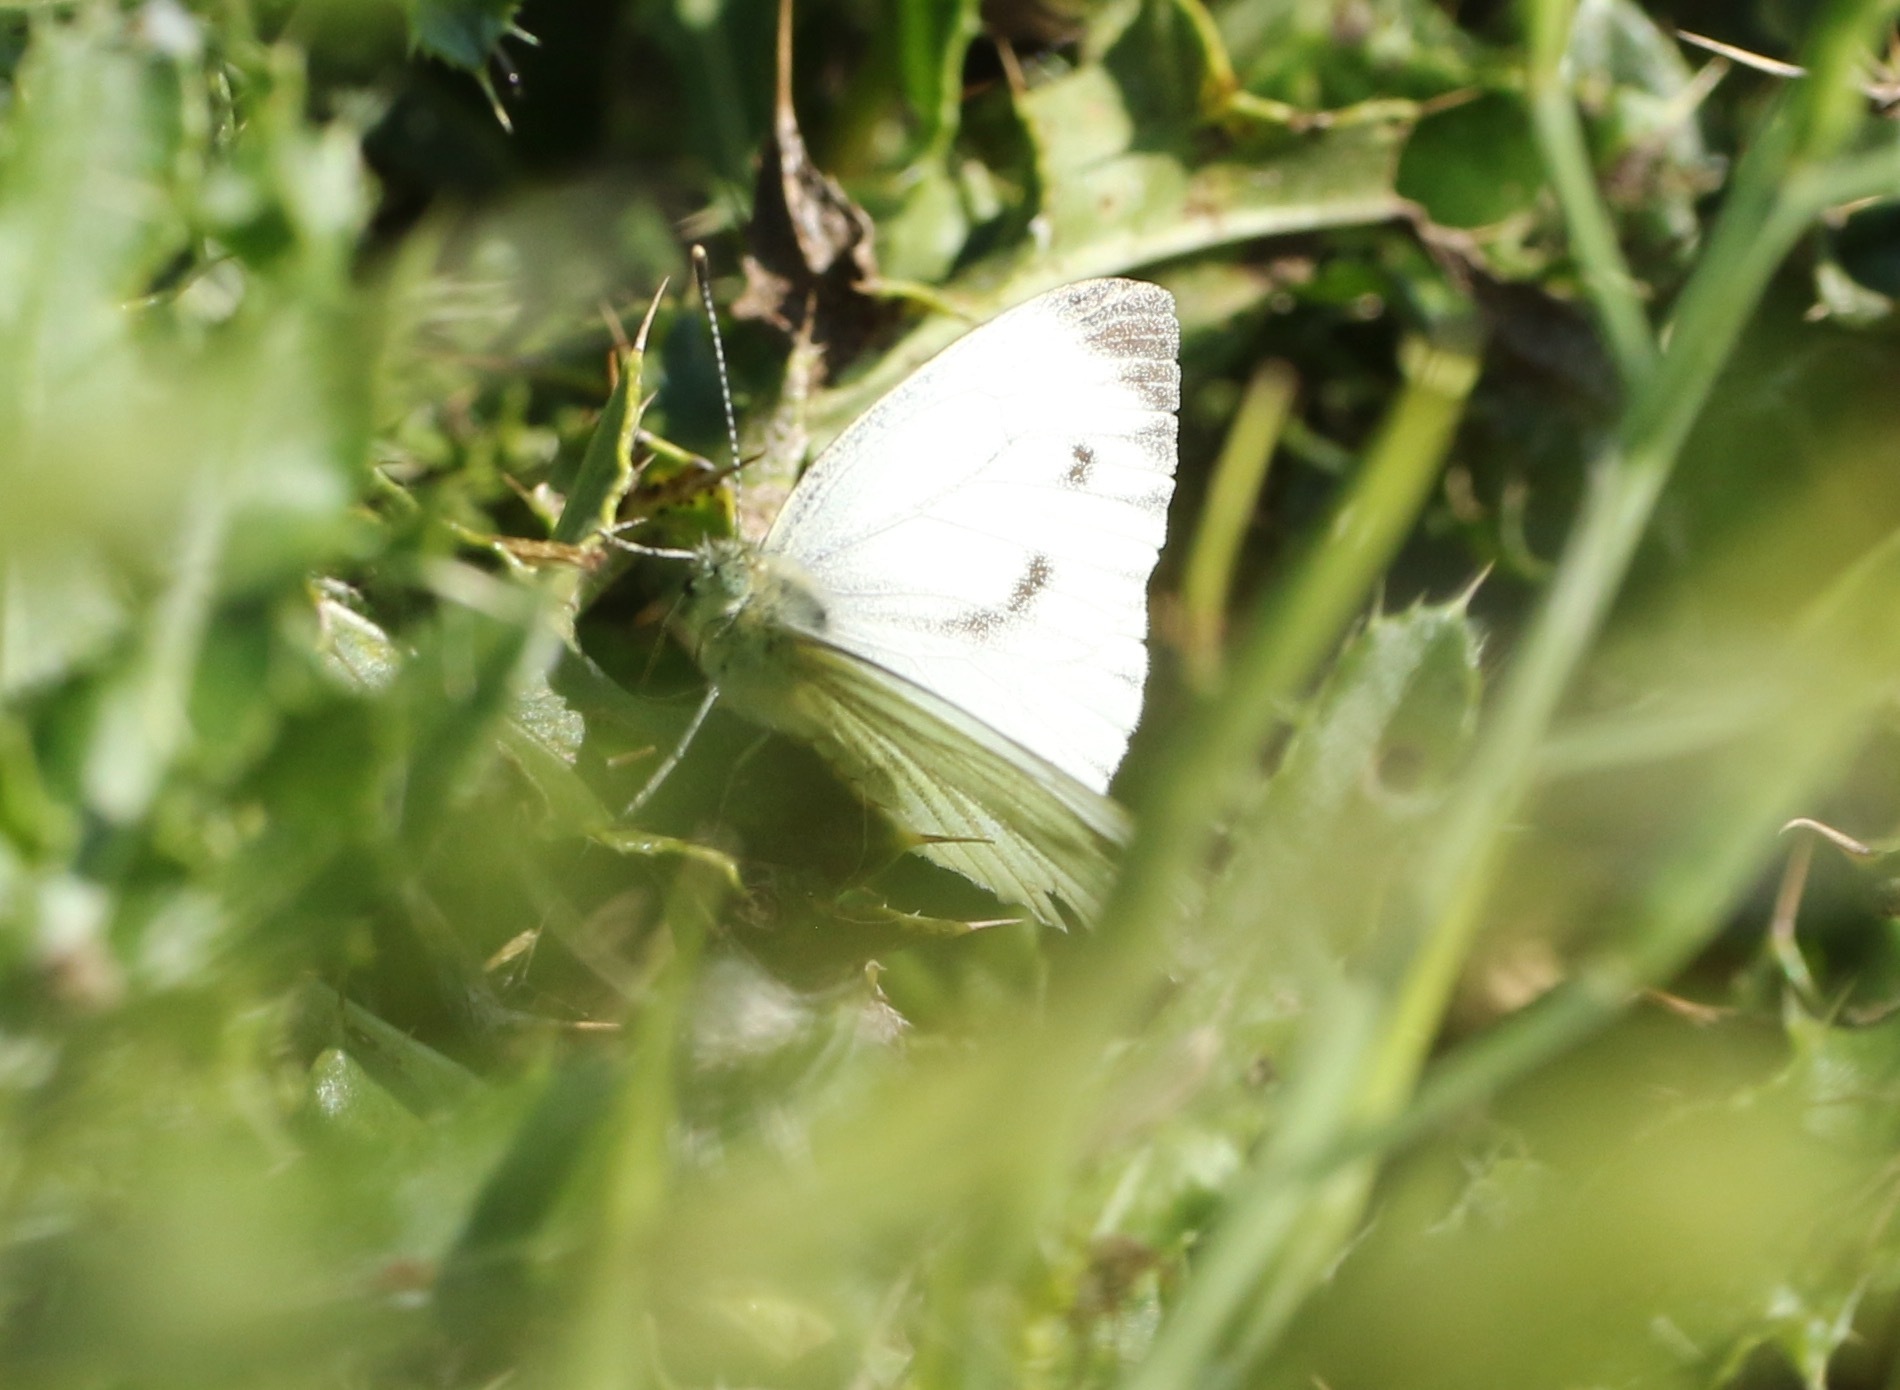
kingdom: Animalia
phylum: Arthropoda
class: Insecta
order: Lepidoptera
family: Pieridae
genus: Pieris
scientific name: Pieris napi
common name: Green-veined white
